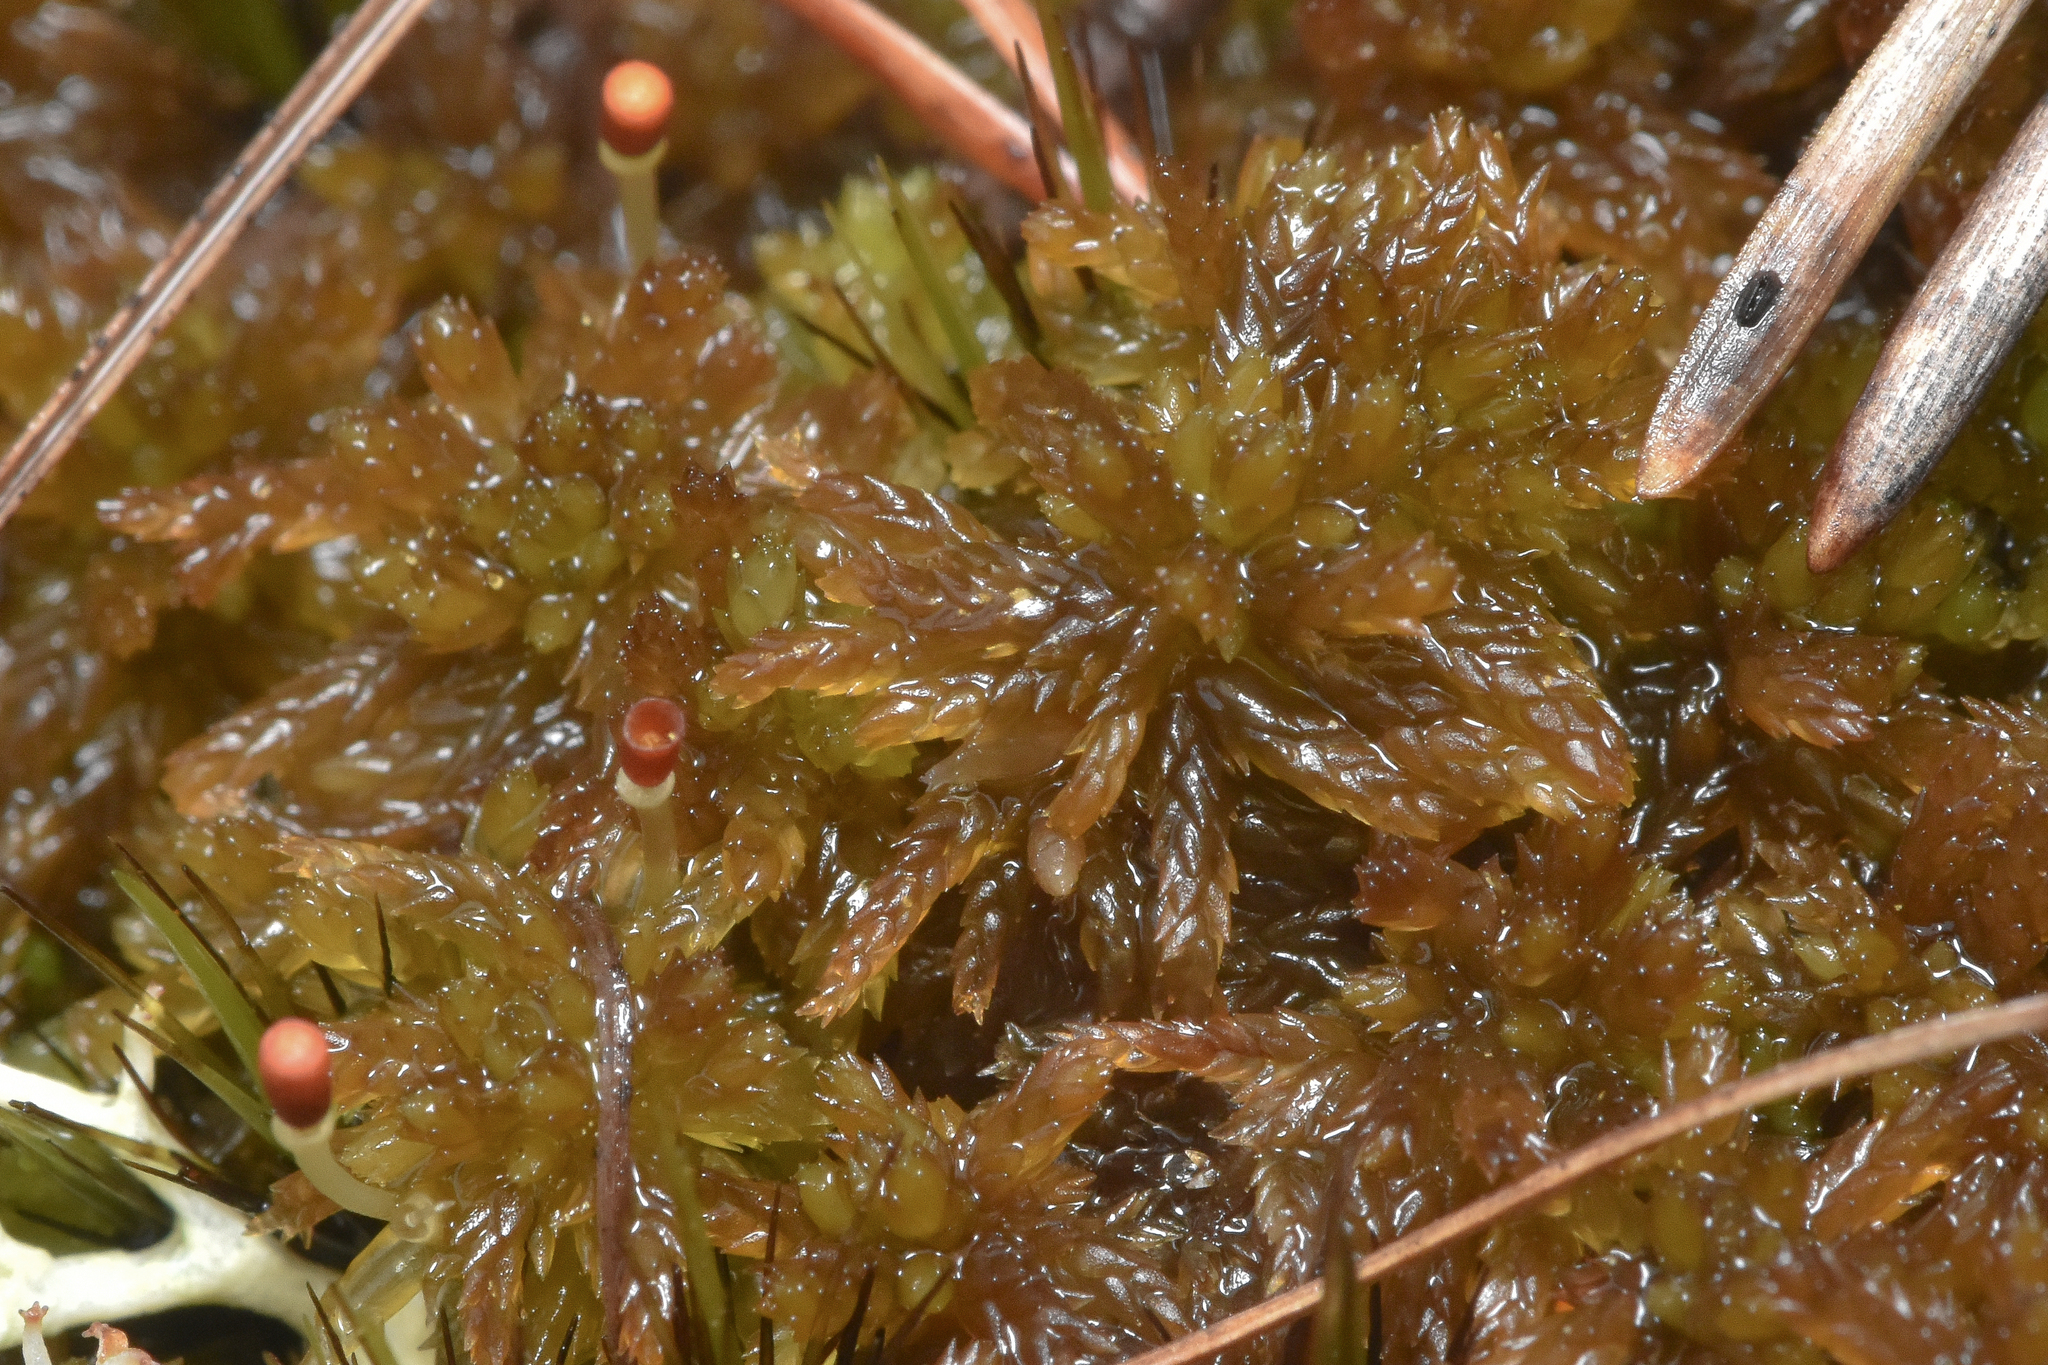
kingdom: Plantae
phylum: Bryophyta
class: Sphagnopsida
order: Sphagnales
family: Sphagnaceae
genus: Sphagnum
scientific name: Sphagnum tenellum
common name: Soft bog-moss
